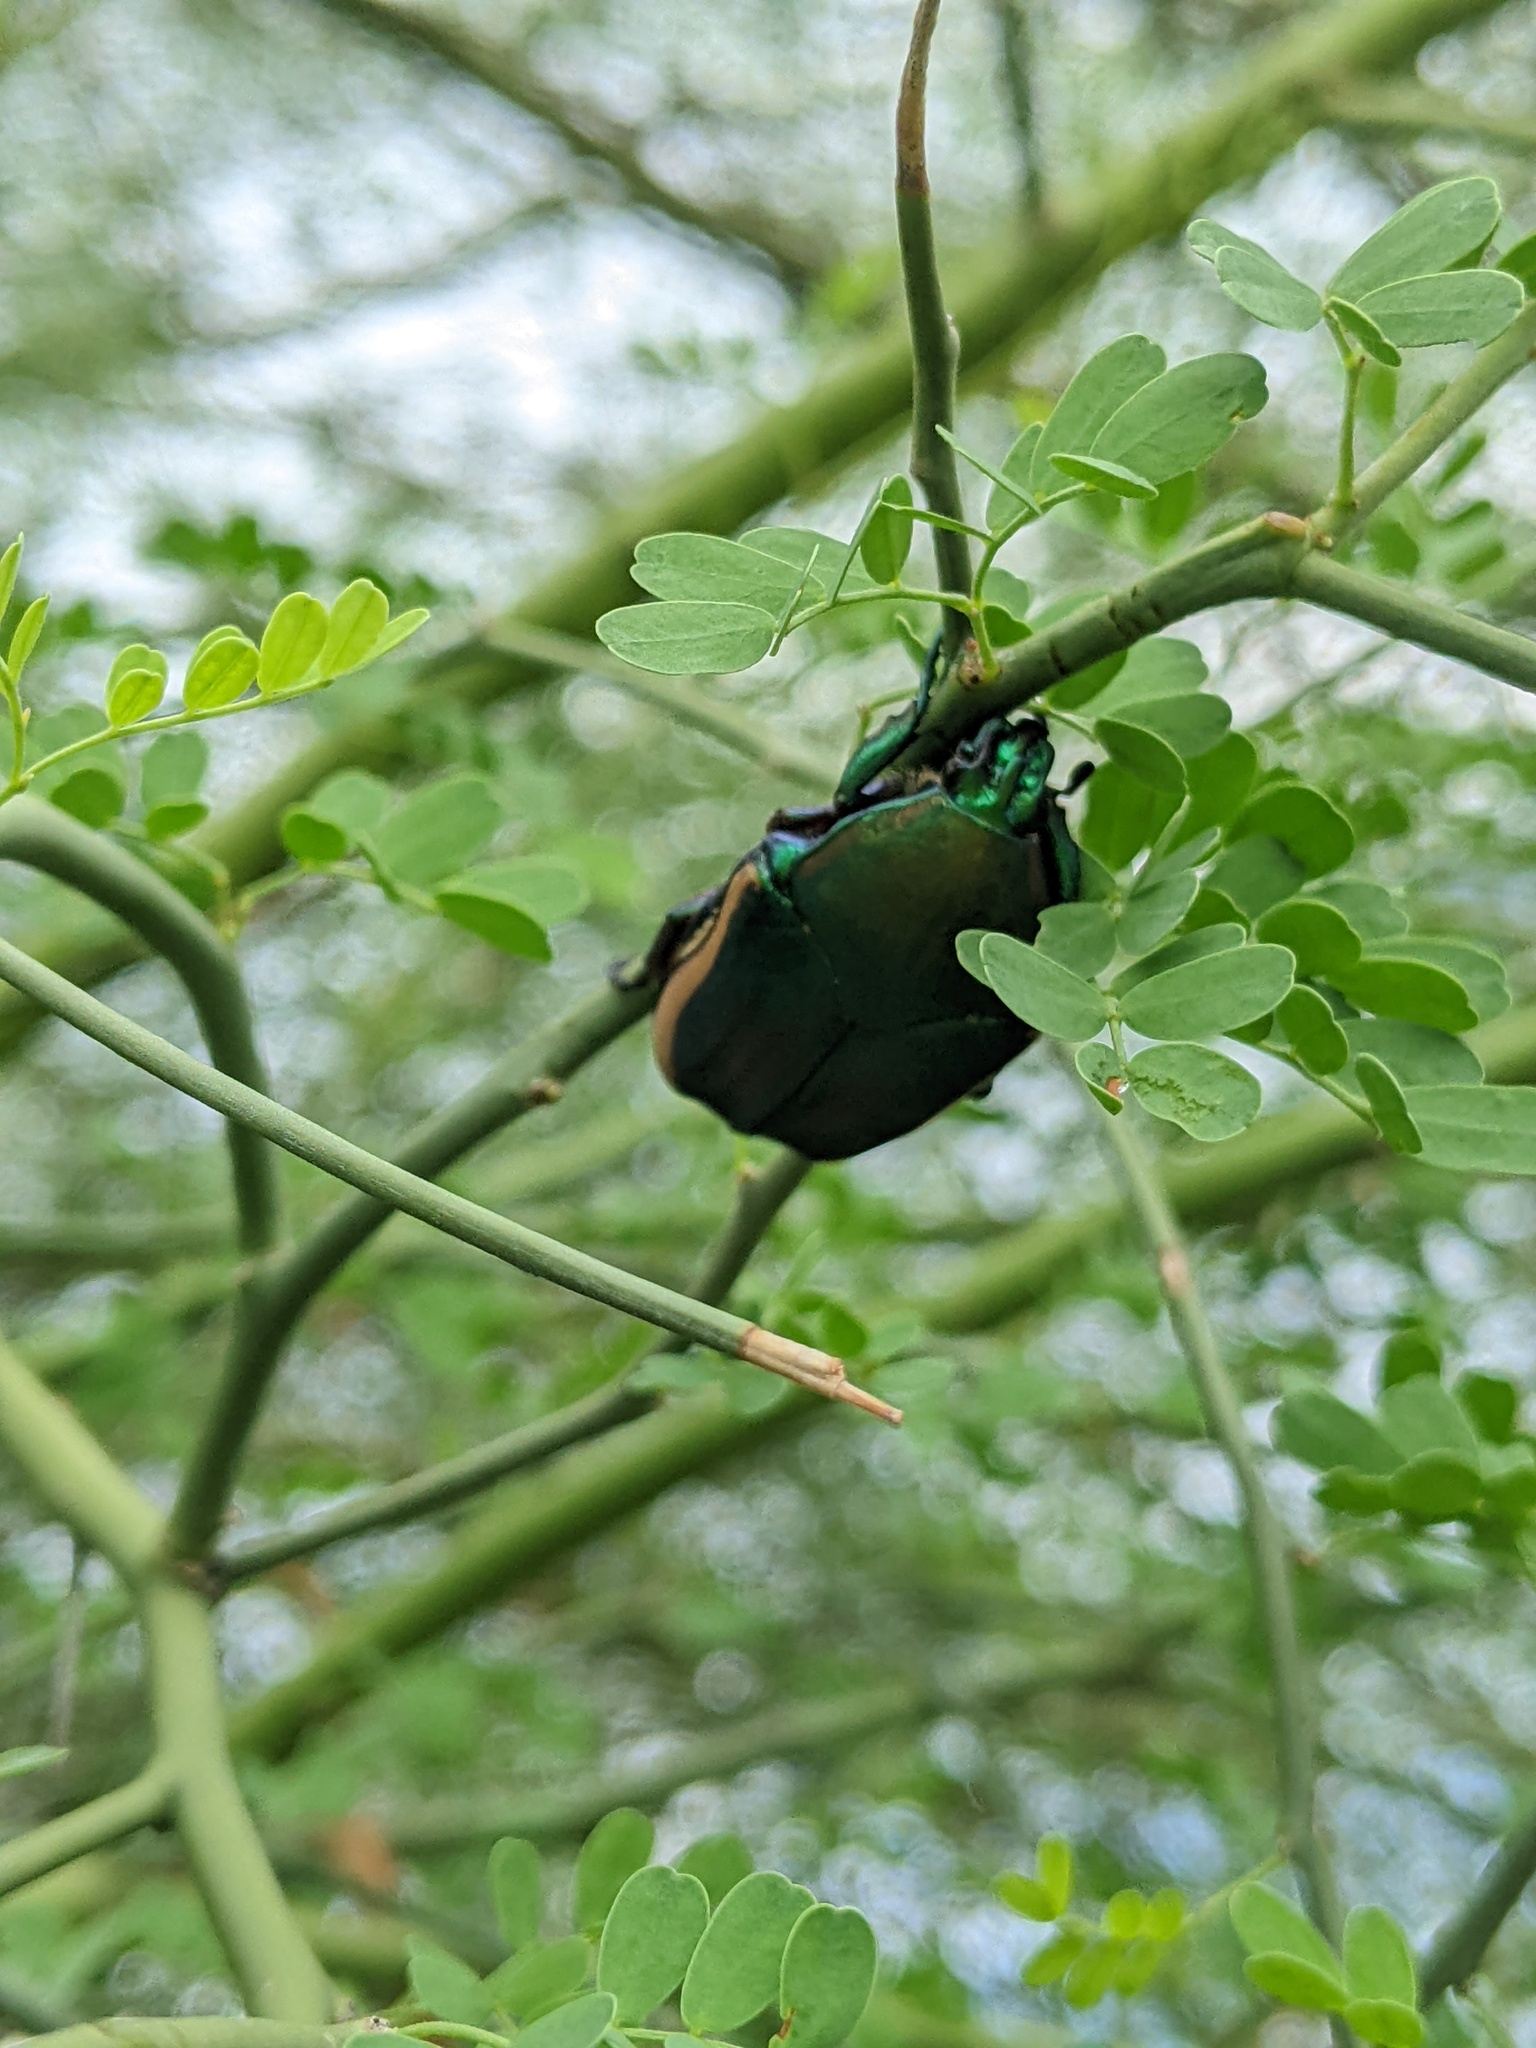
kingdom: Animalia
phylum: Arthropoda
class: Insecta
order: Coleoptera
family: Scarabaeidae
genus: Cotinis
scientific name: Cotinis mutabilis
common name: Figeater beetle
